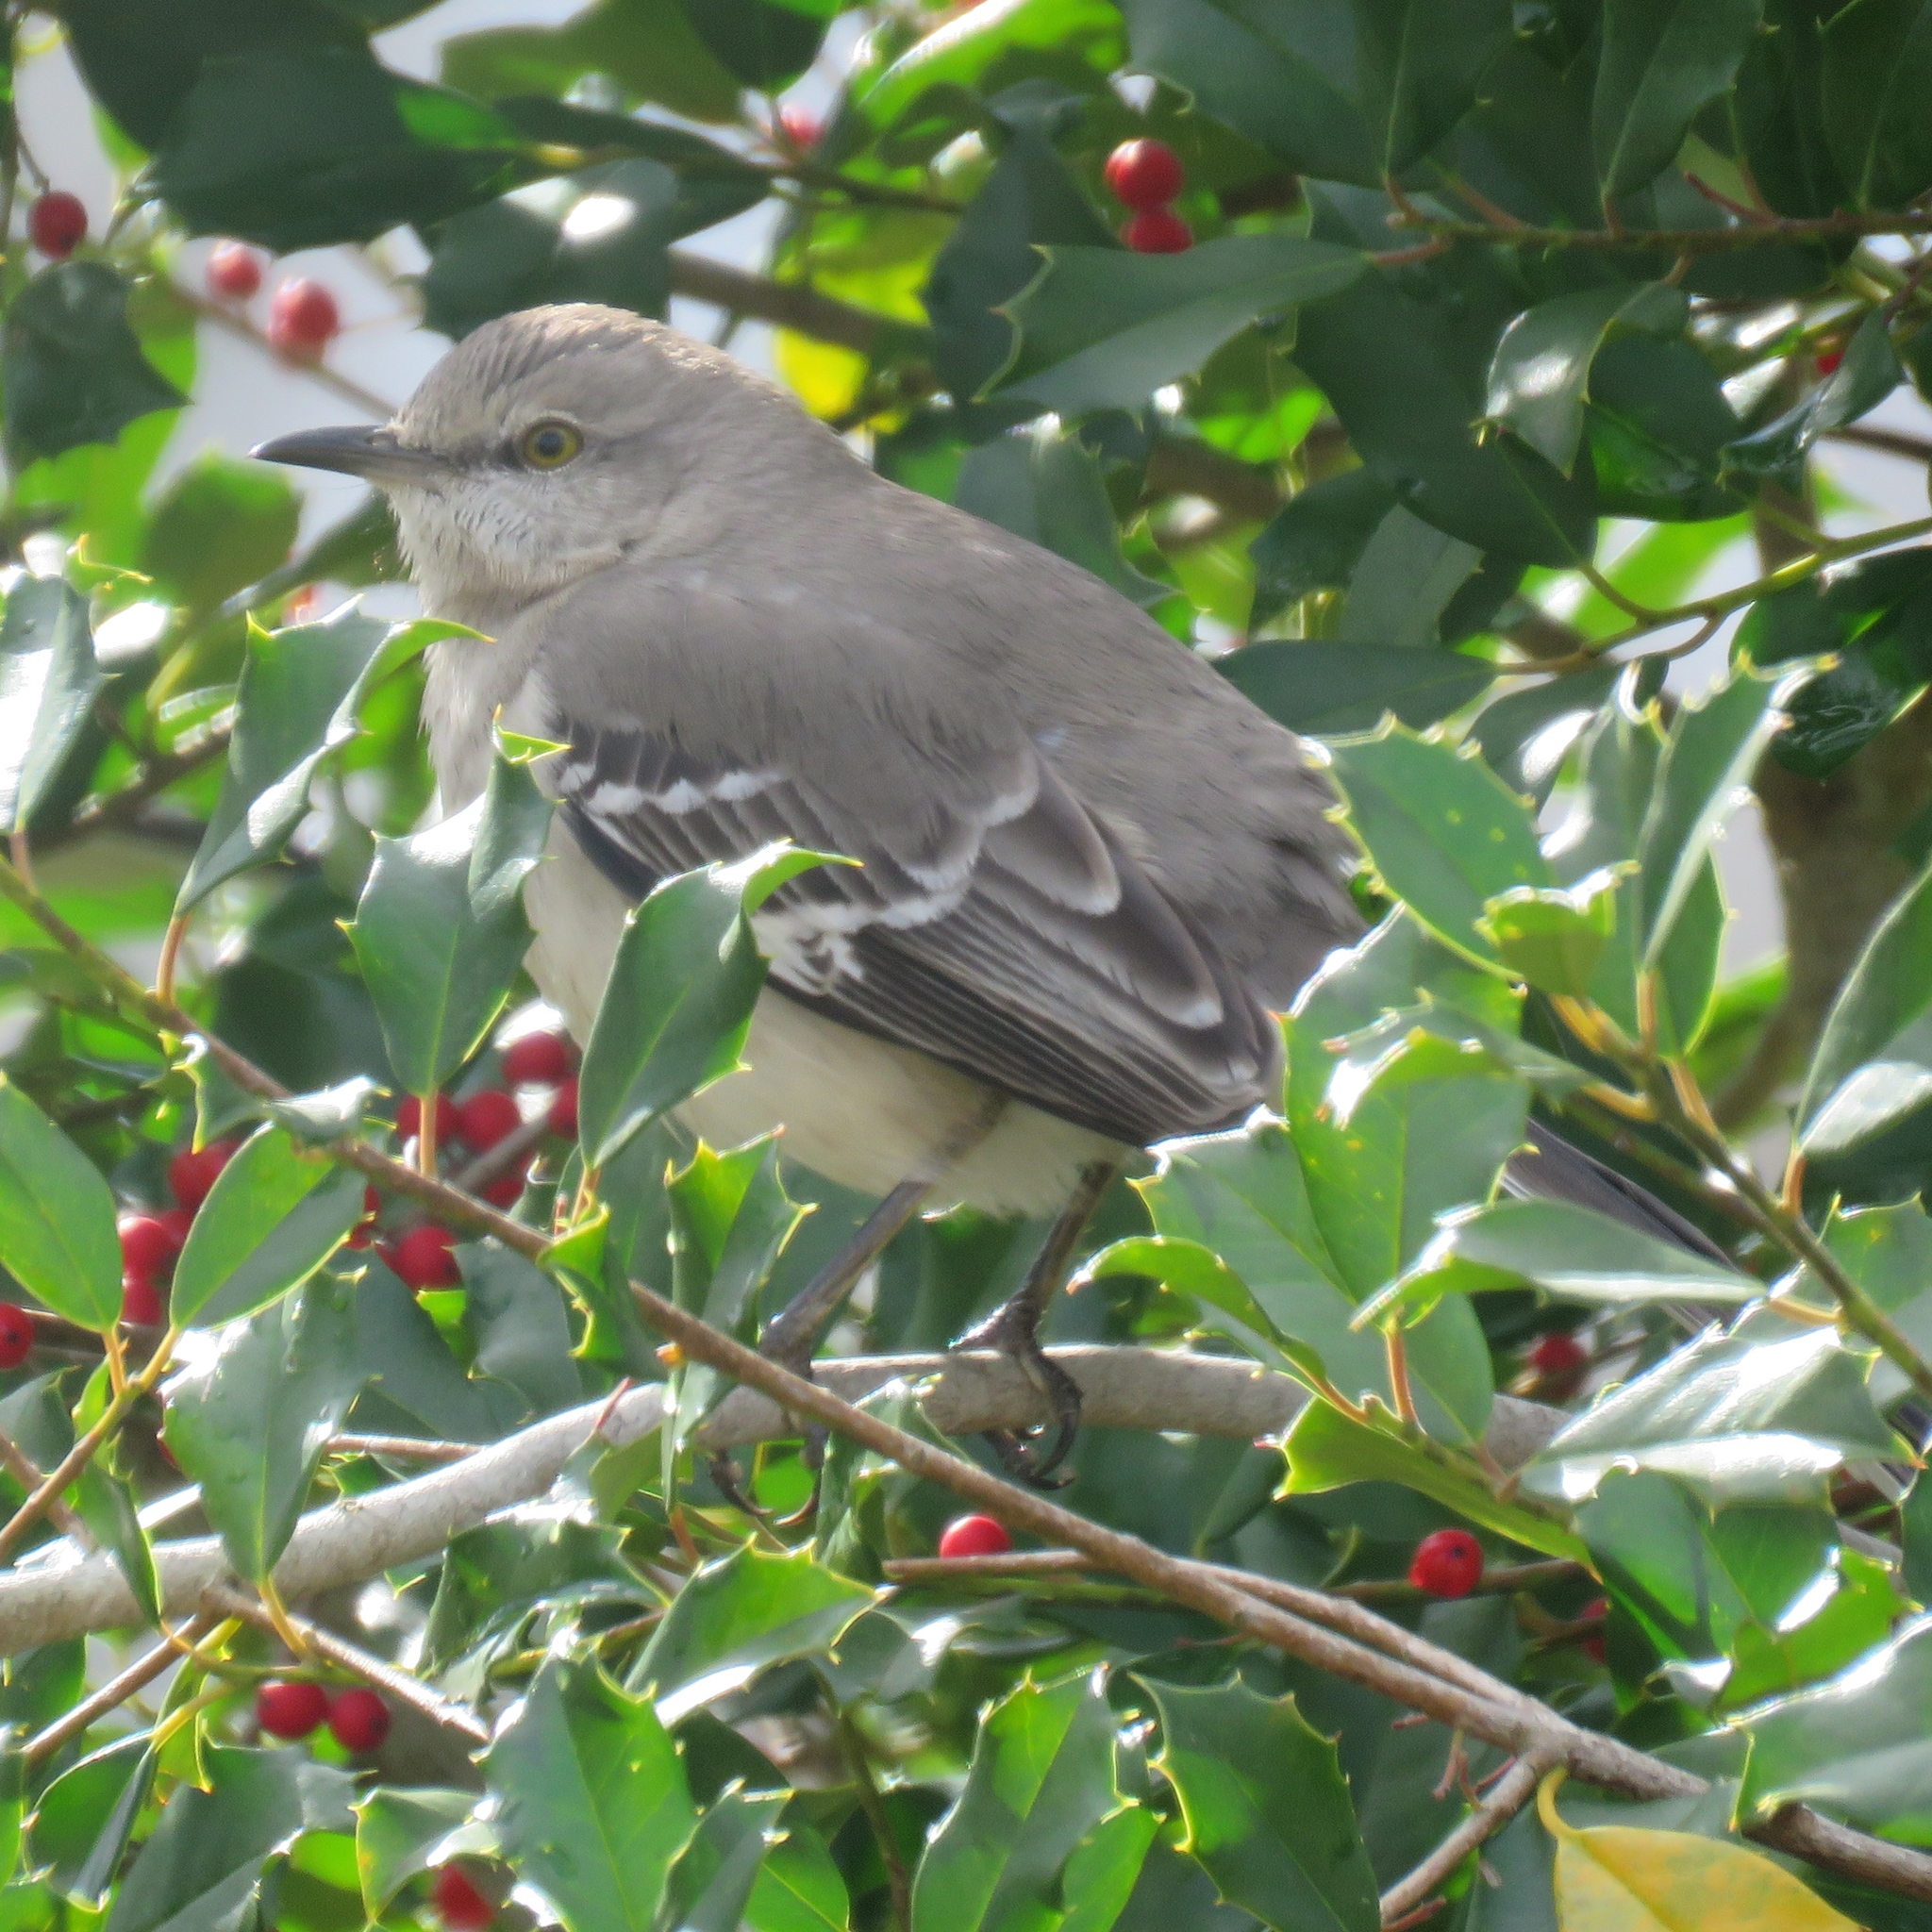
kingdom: Animalia
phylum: Chordata
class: Aves
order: Passeriformes
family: Mimidae
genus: Mimus
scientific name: Mimus polyglottos
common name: Northern mockingbird
